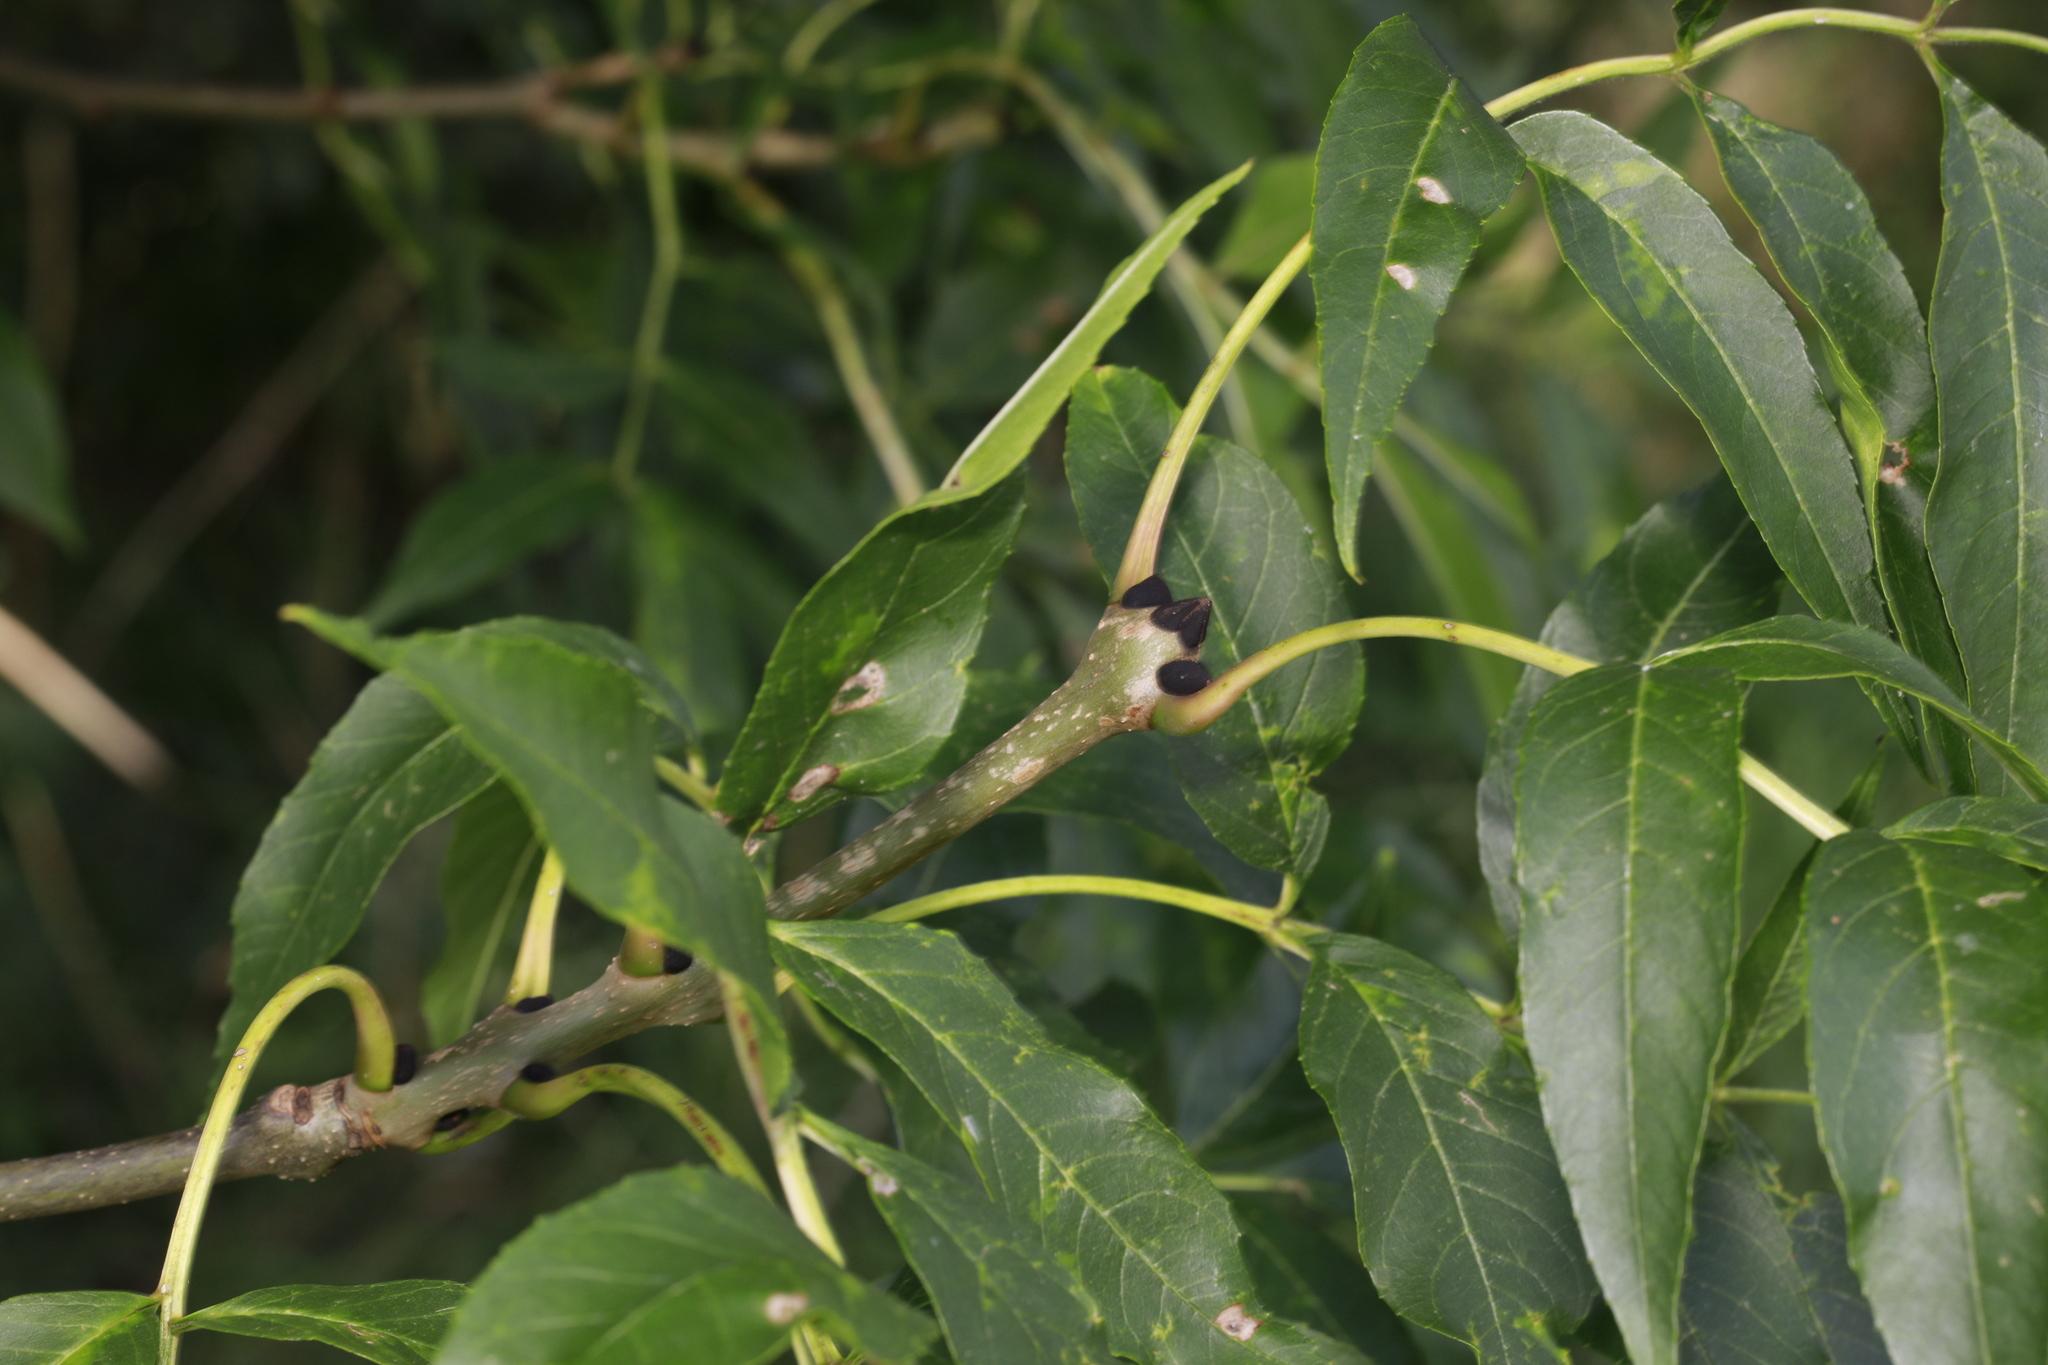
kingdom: Plantae
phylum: Tracheophyta
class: Magnoliopsida
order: Lamiales
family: Oleaceae
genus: Fraxinus
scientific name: Fraxinus excelsior
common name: European ash
